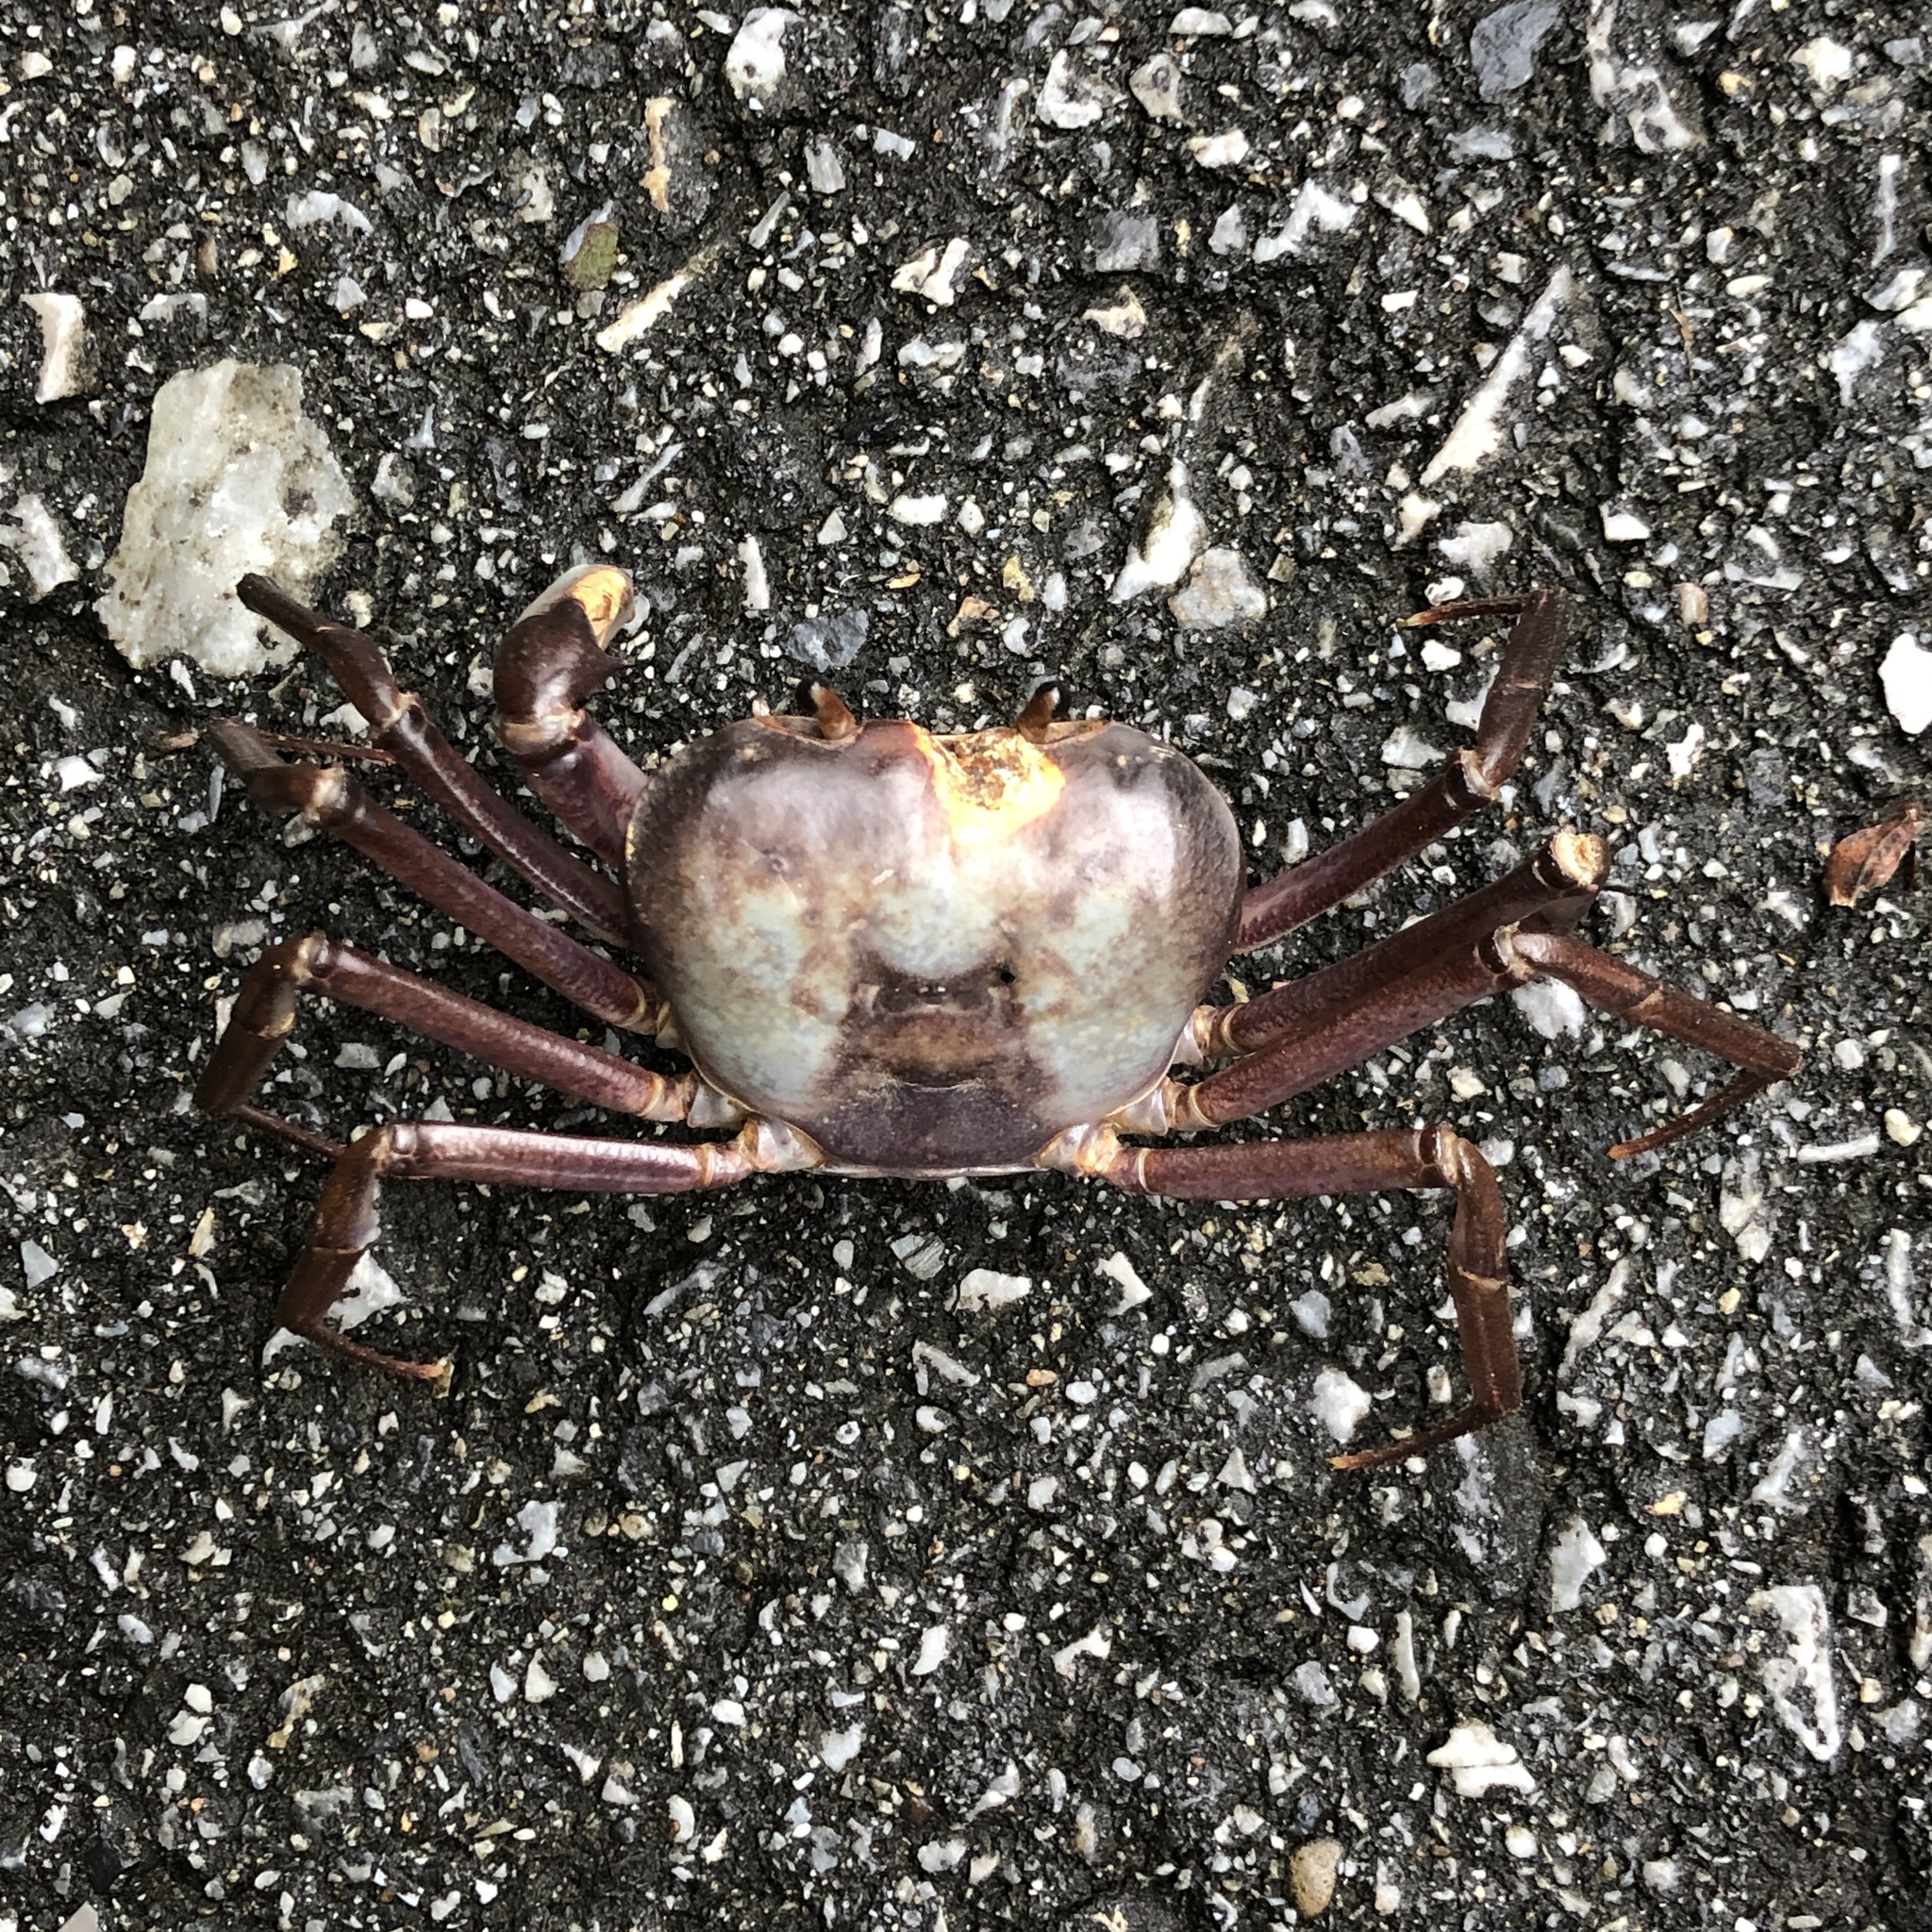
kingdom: Animalia
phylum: Arthropoda
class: Malacostraca
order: Decapoda
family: Potamidae
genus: Geothelphusa
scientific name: Geothelphusa tenuimanus
